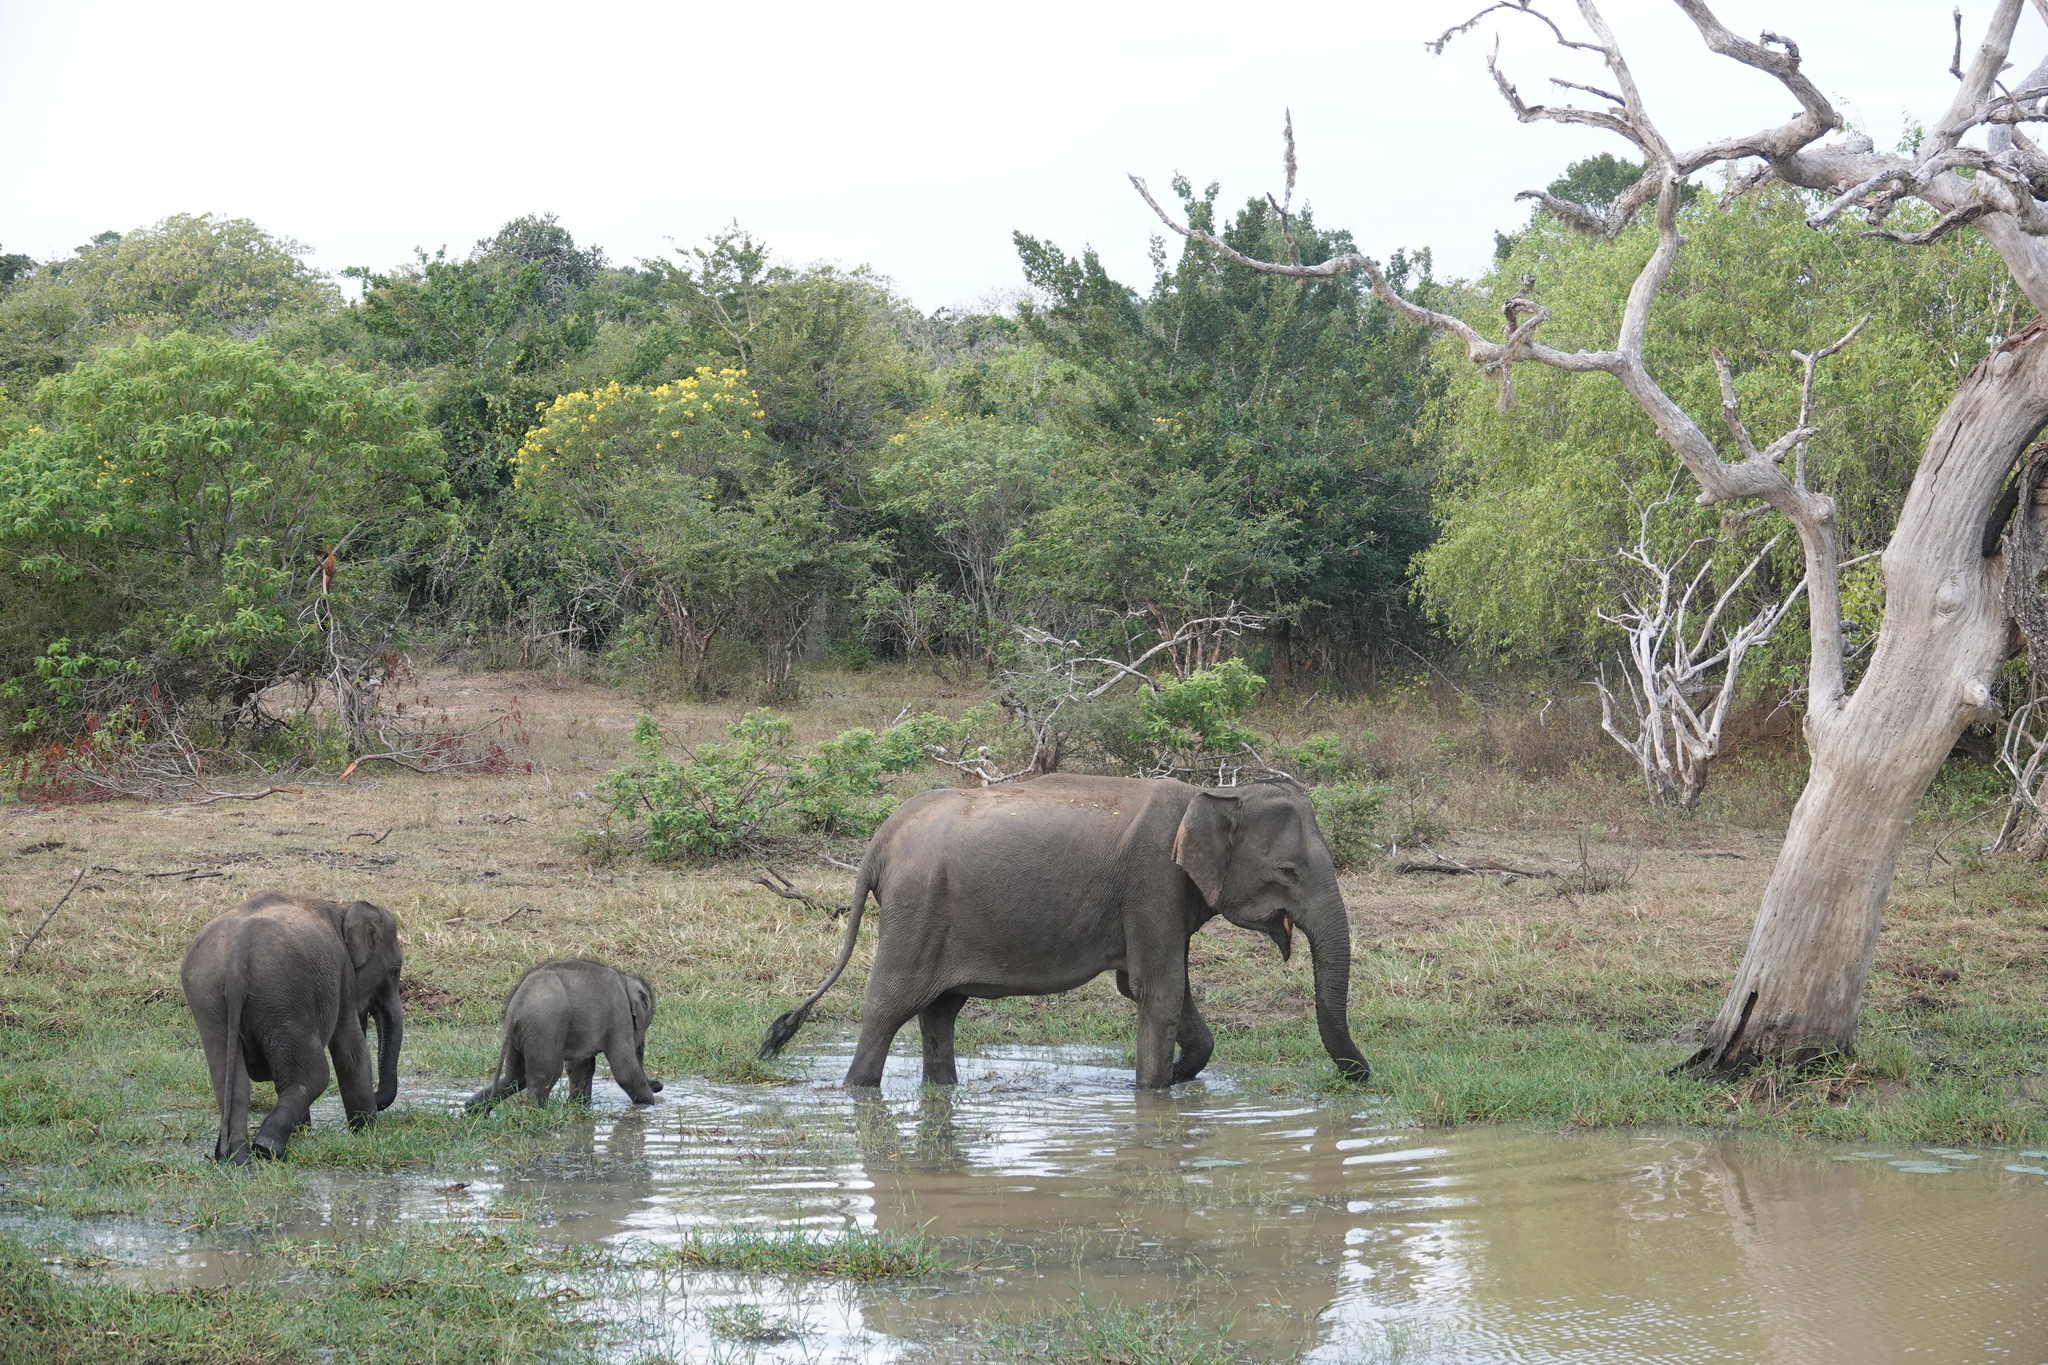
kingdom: Animalia
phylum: Chordata
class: Mammalia
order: Proboscidea
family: Elephantidae
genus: Elephas
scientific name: Elephas maximus
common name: Asian elephant
